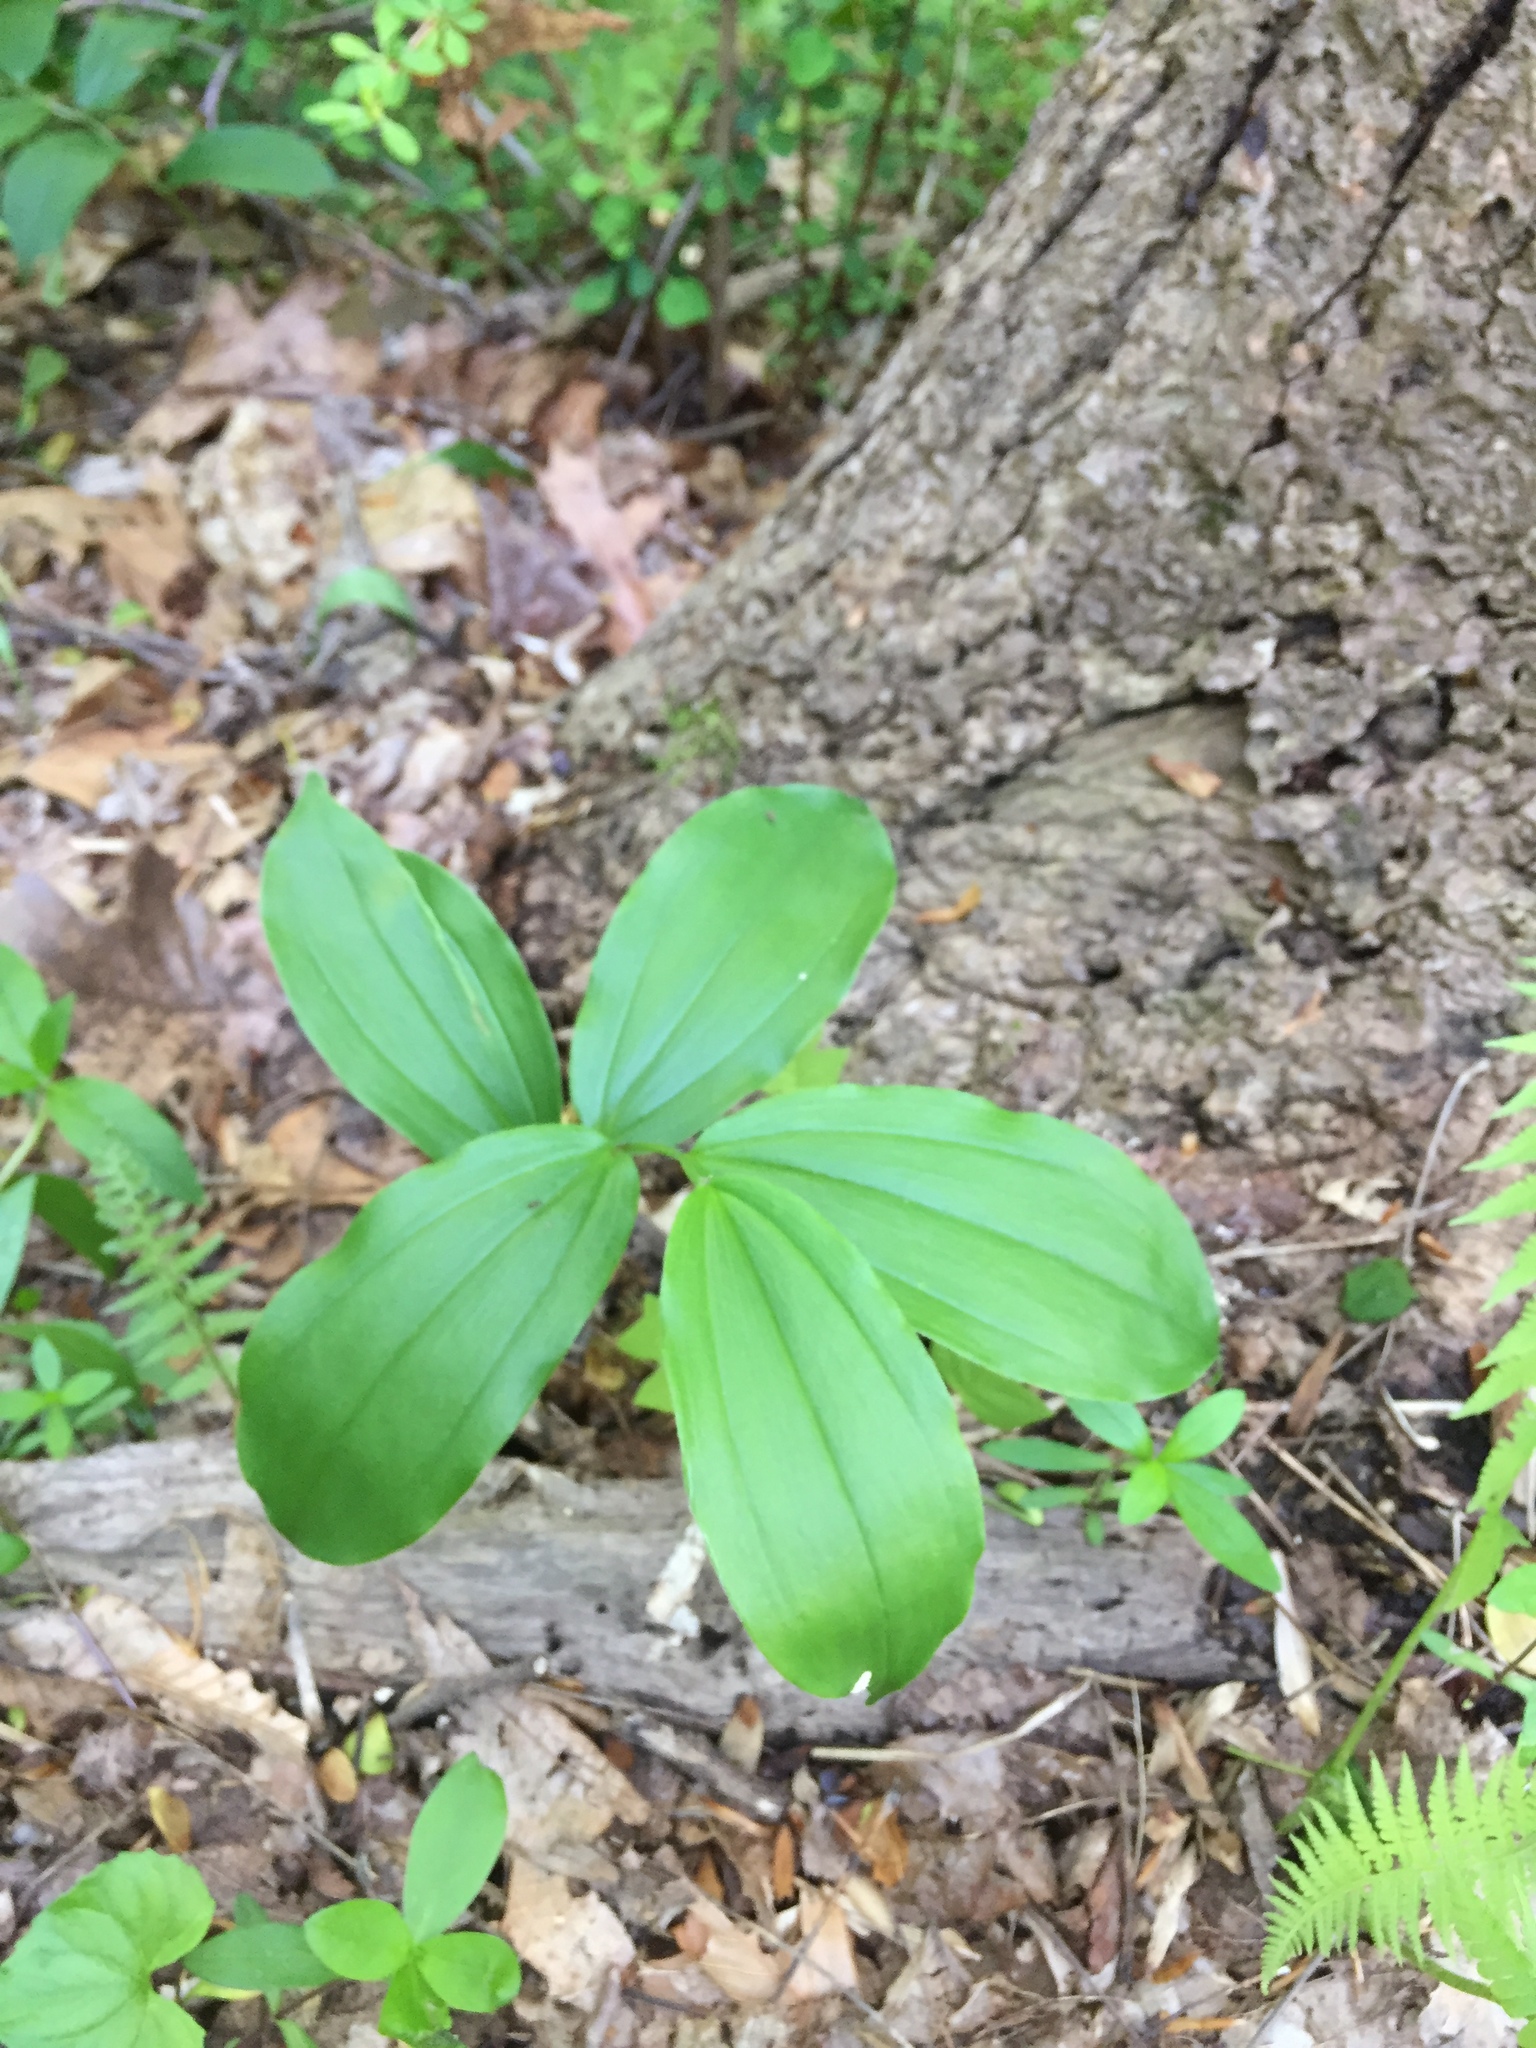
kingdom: Plantae
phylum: Tracheophyta
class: Liliopsida
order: Asparagales
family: Asparagaceae
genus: Maianthemum
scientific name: Maianthemum racemosum
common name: False spikenard
